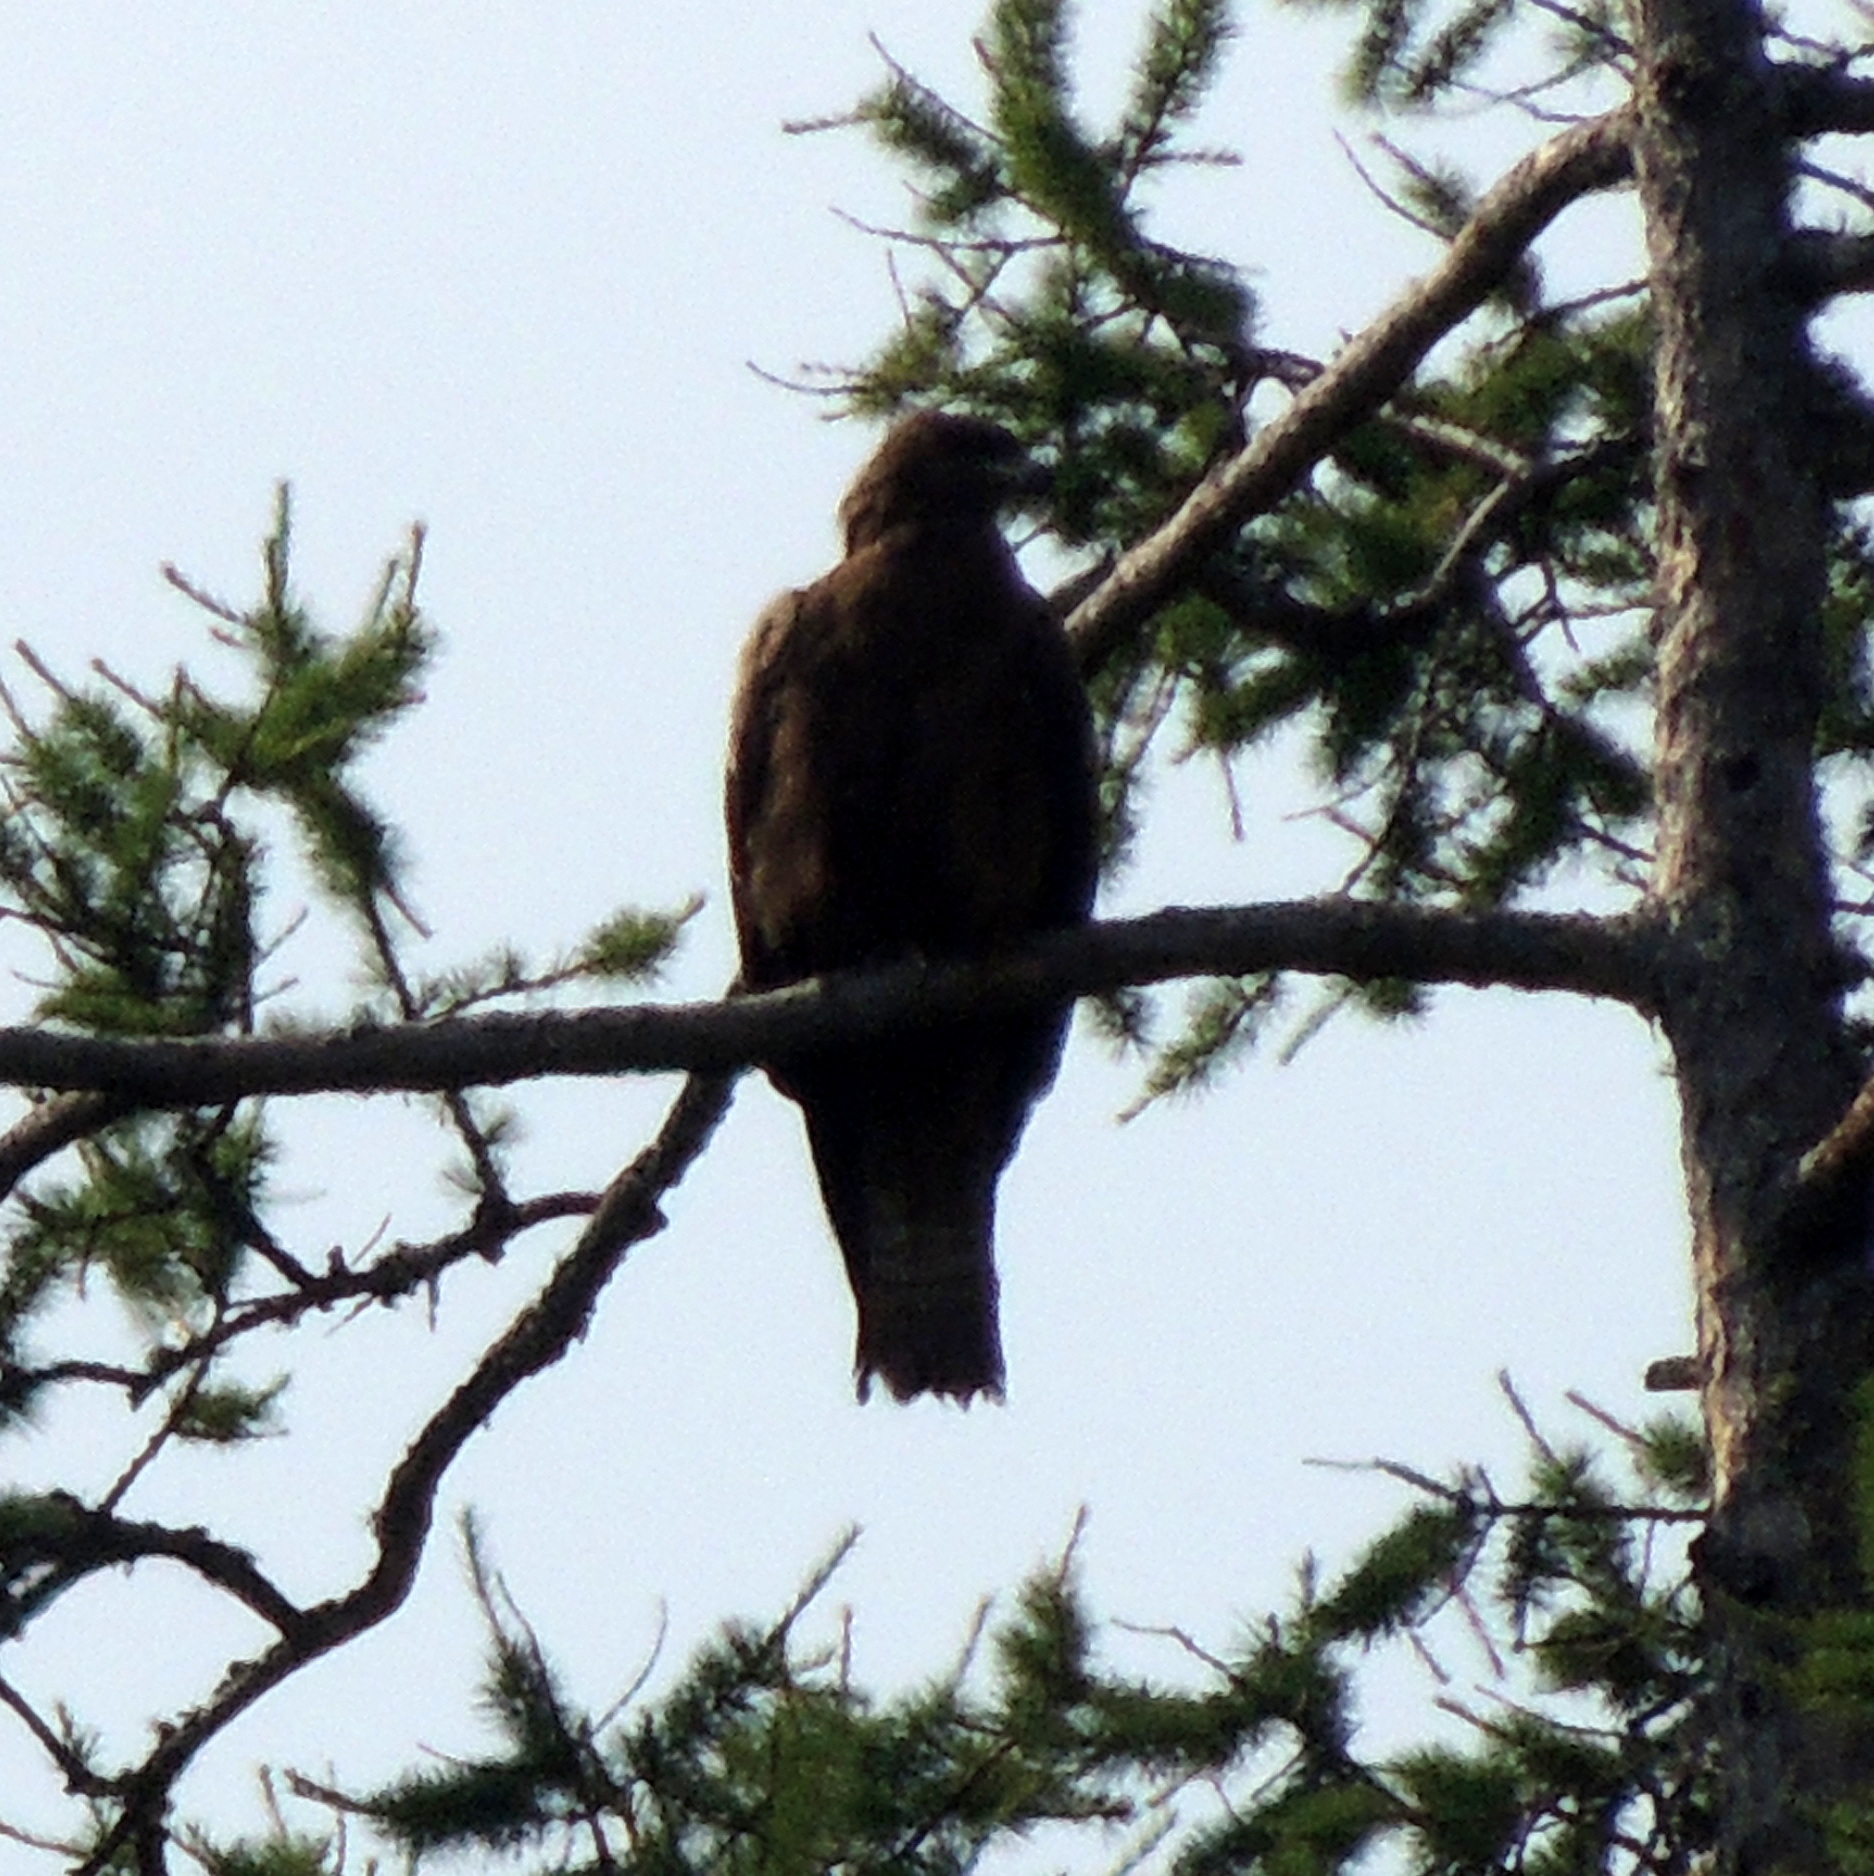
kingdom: Animalia
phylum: Chordata
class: Aves
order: Accipitriformes
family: Accipitridae
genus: Milvus
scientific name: Milvus migrans
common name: Black kite
